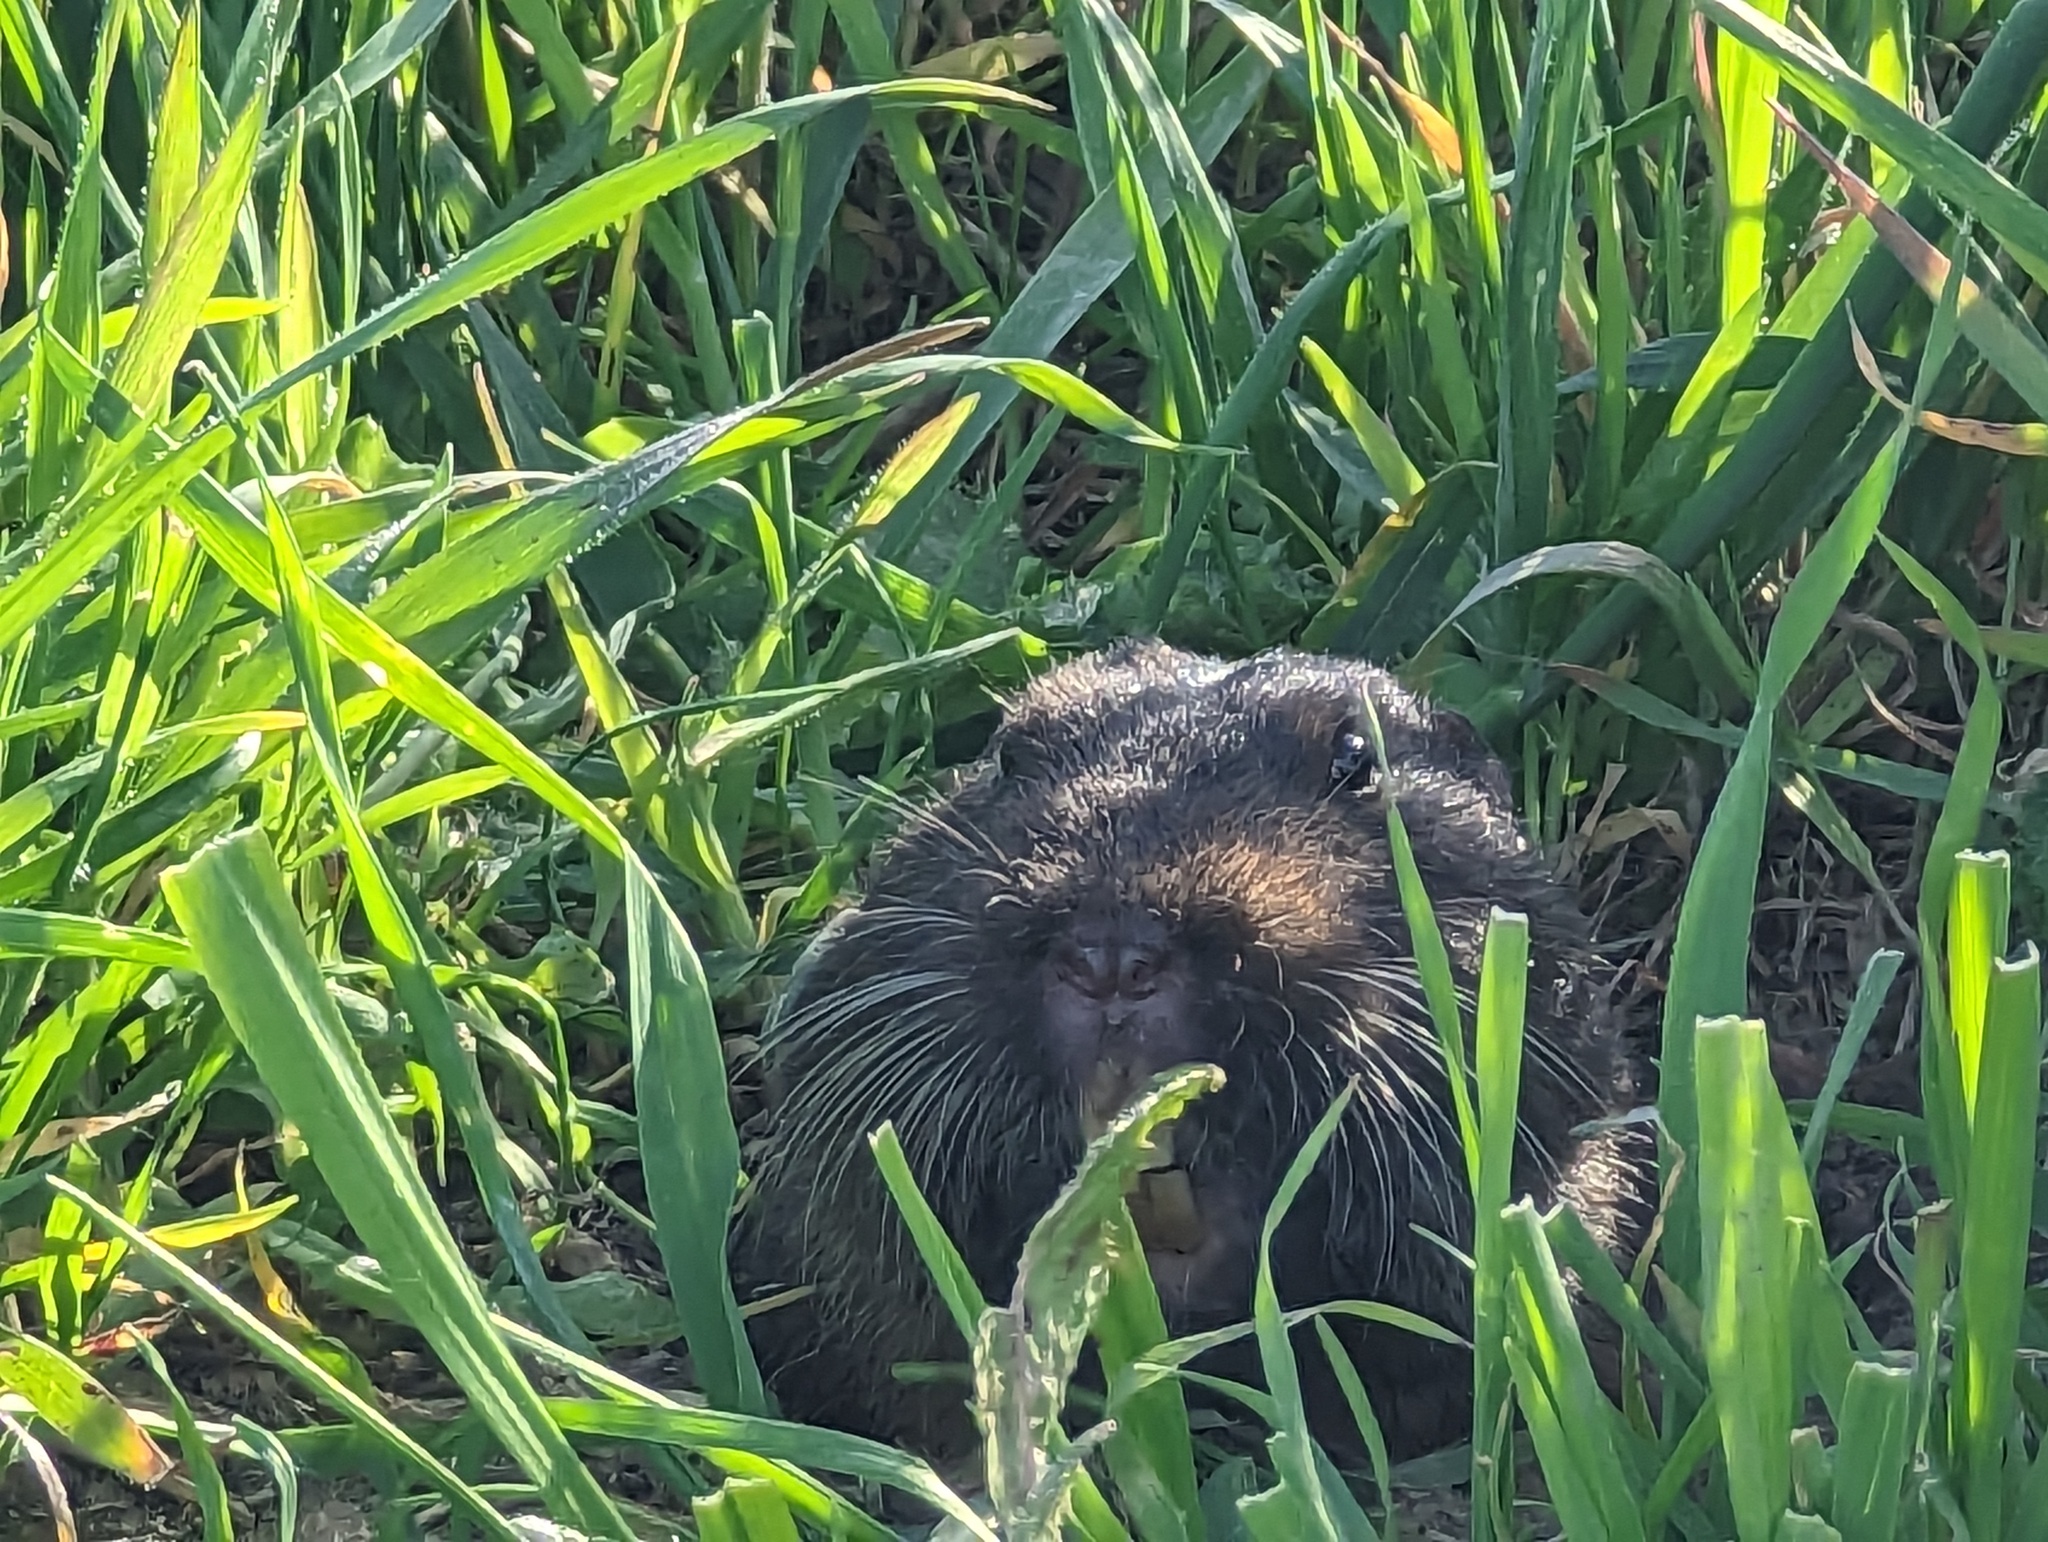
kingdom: Animalia
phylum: Chordata
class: Mammalia
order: Rodentia
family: Geomyidae
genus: Thomomys
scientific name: Thomomys bottae
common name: Botta's pocket gopher
